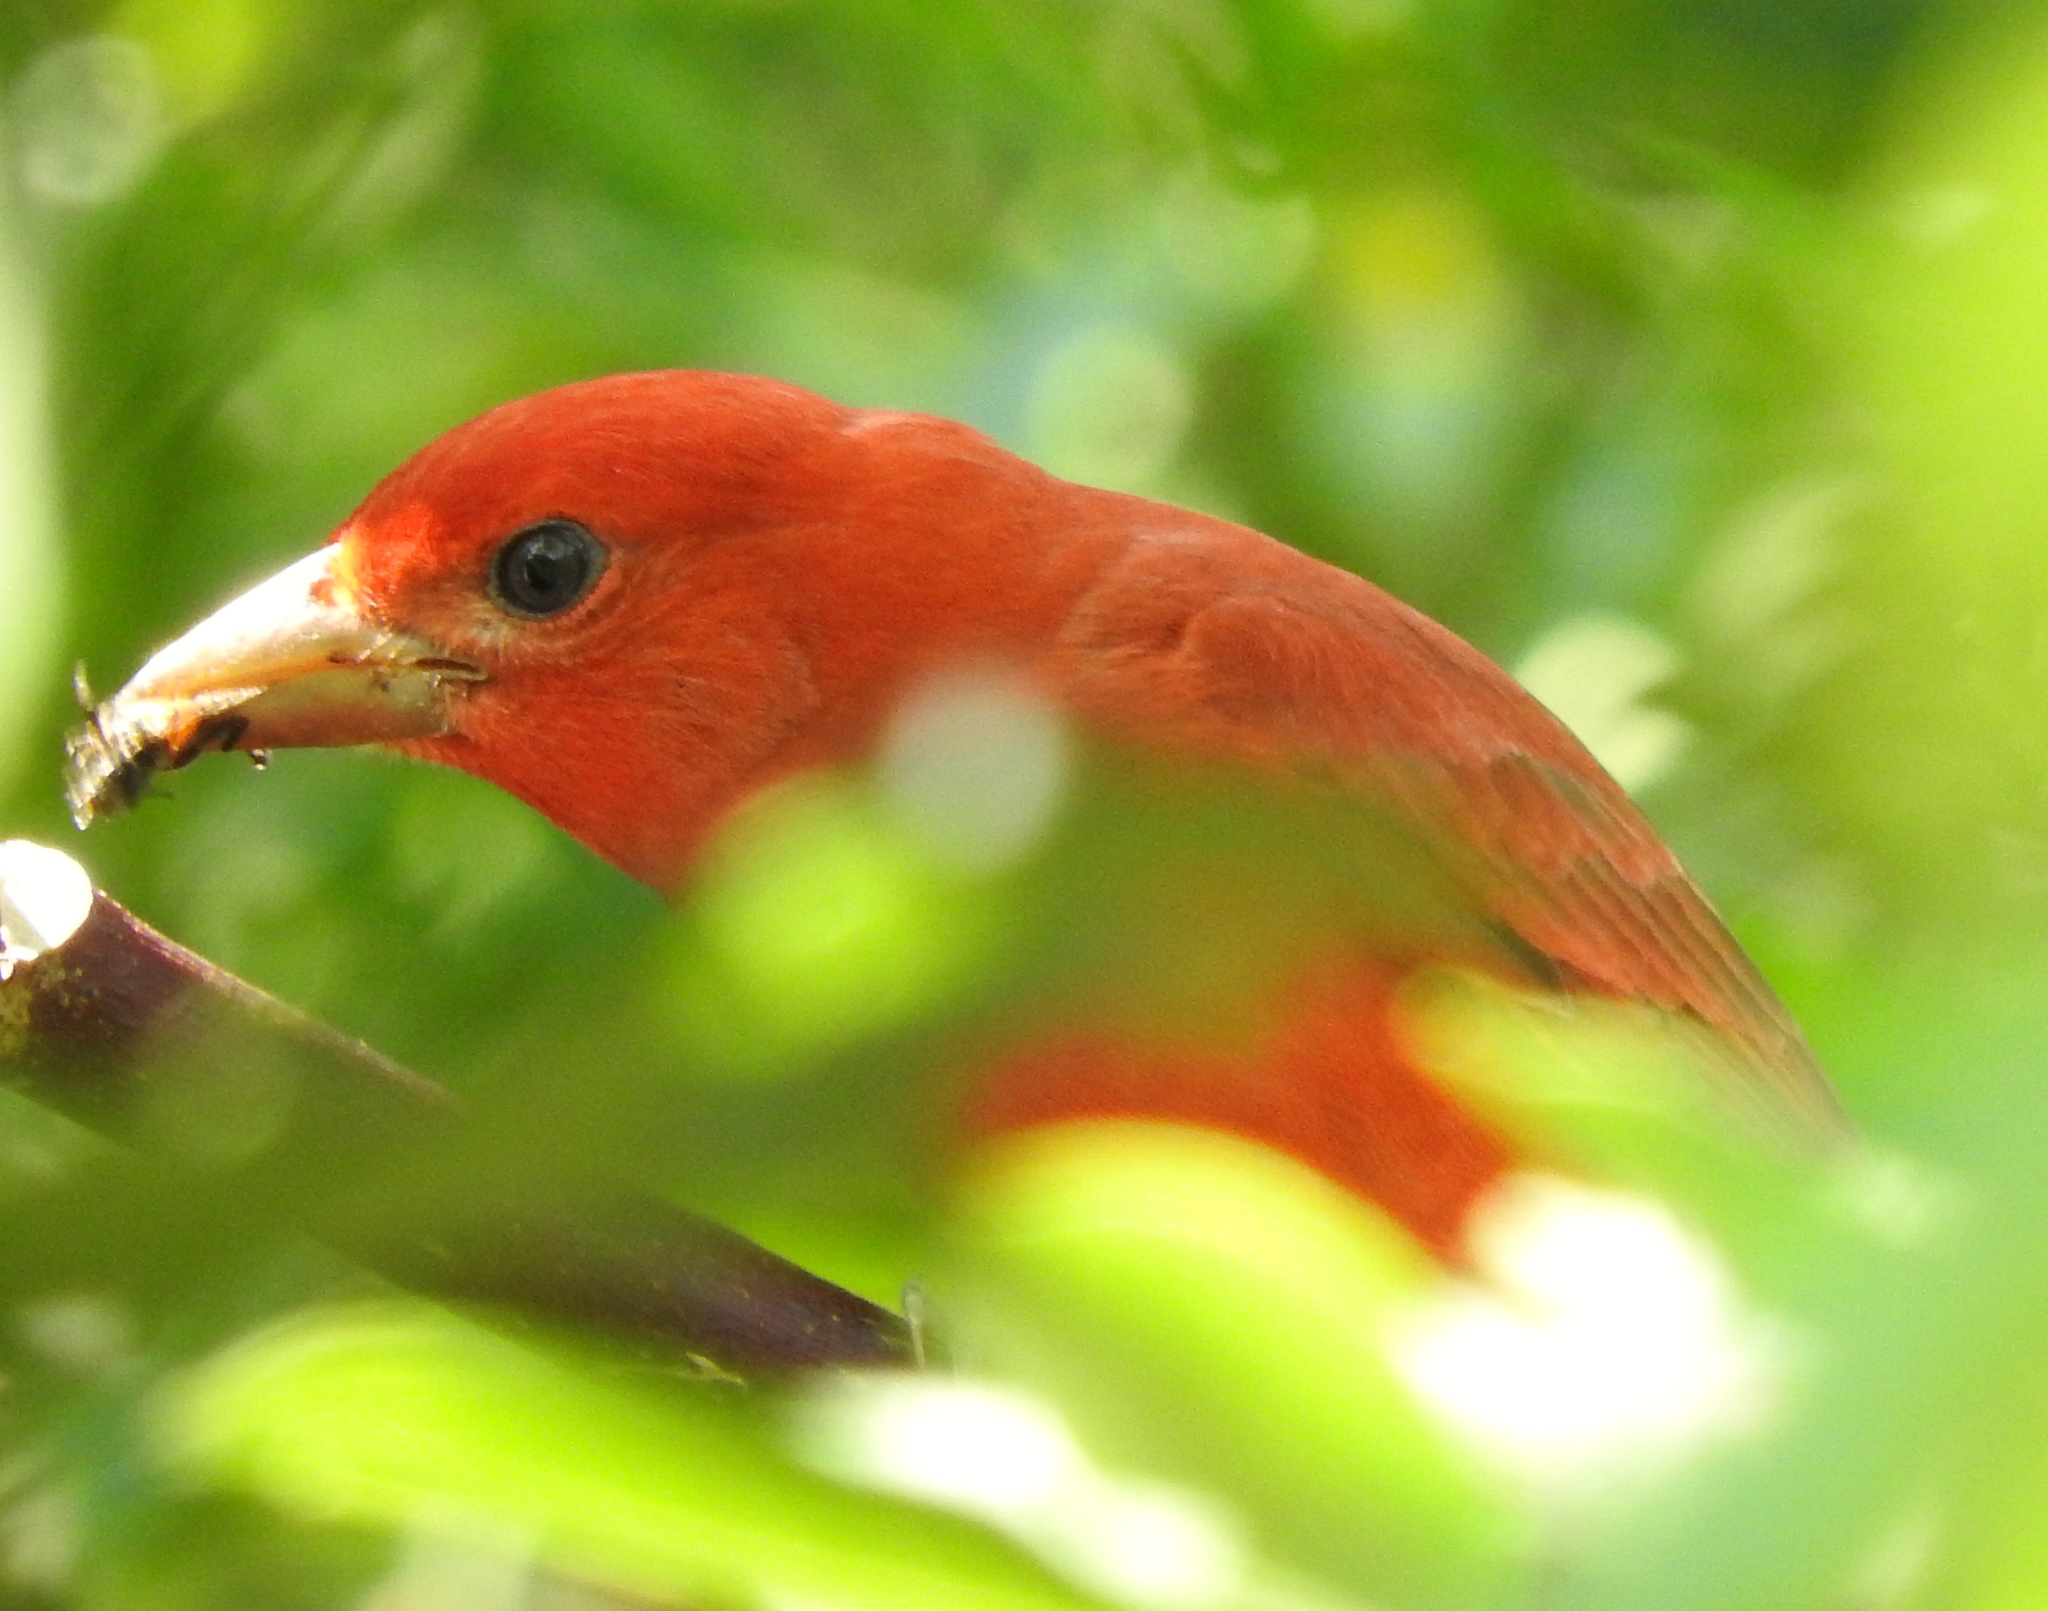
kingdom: Animalia
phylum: Chordata
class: Aves
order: Passeriformes
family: Cardinalidae
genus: Piranga
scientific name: Piranga rubra
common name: Summer tanager
